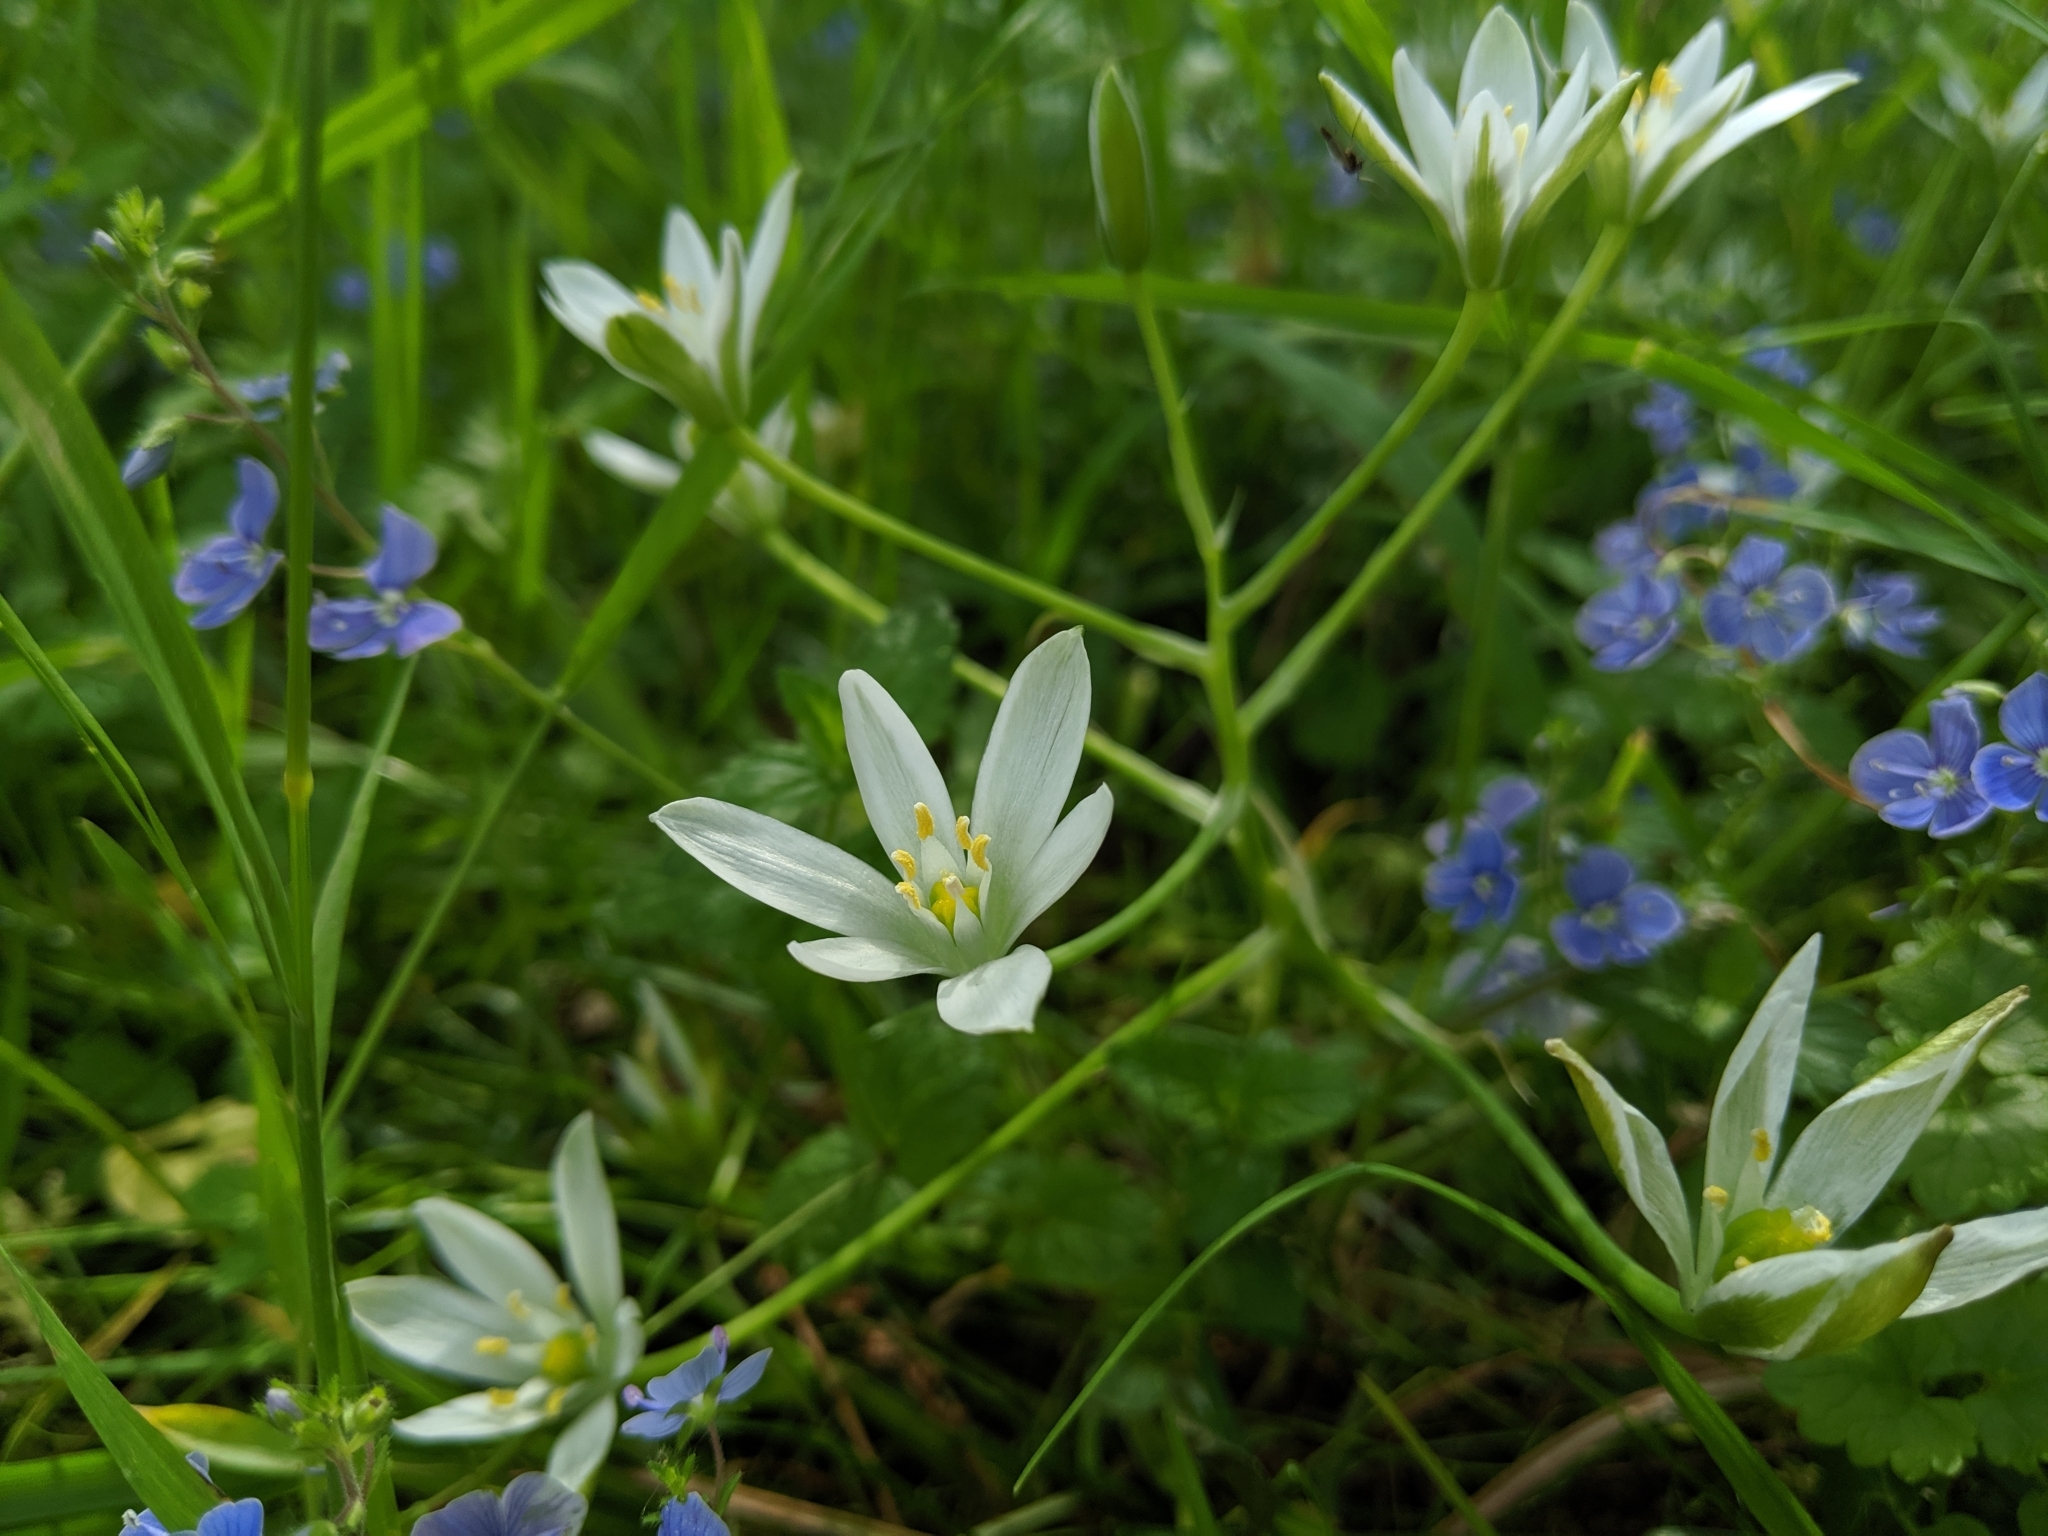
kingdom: Plantae
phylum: Tracheophyta
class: Liliopsida
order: Asparagales
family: Asparagaceae
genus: Ornithogalum
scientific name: Ornithogalum umbellatum
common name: Garden star-of-bethlehem
